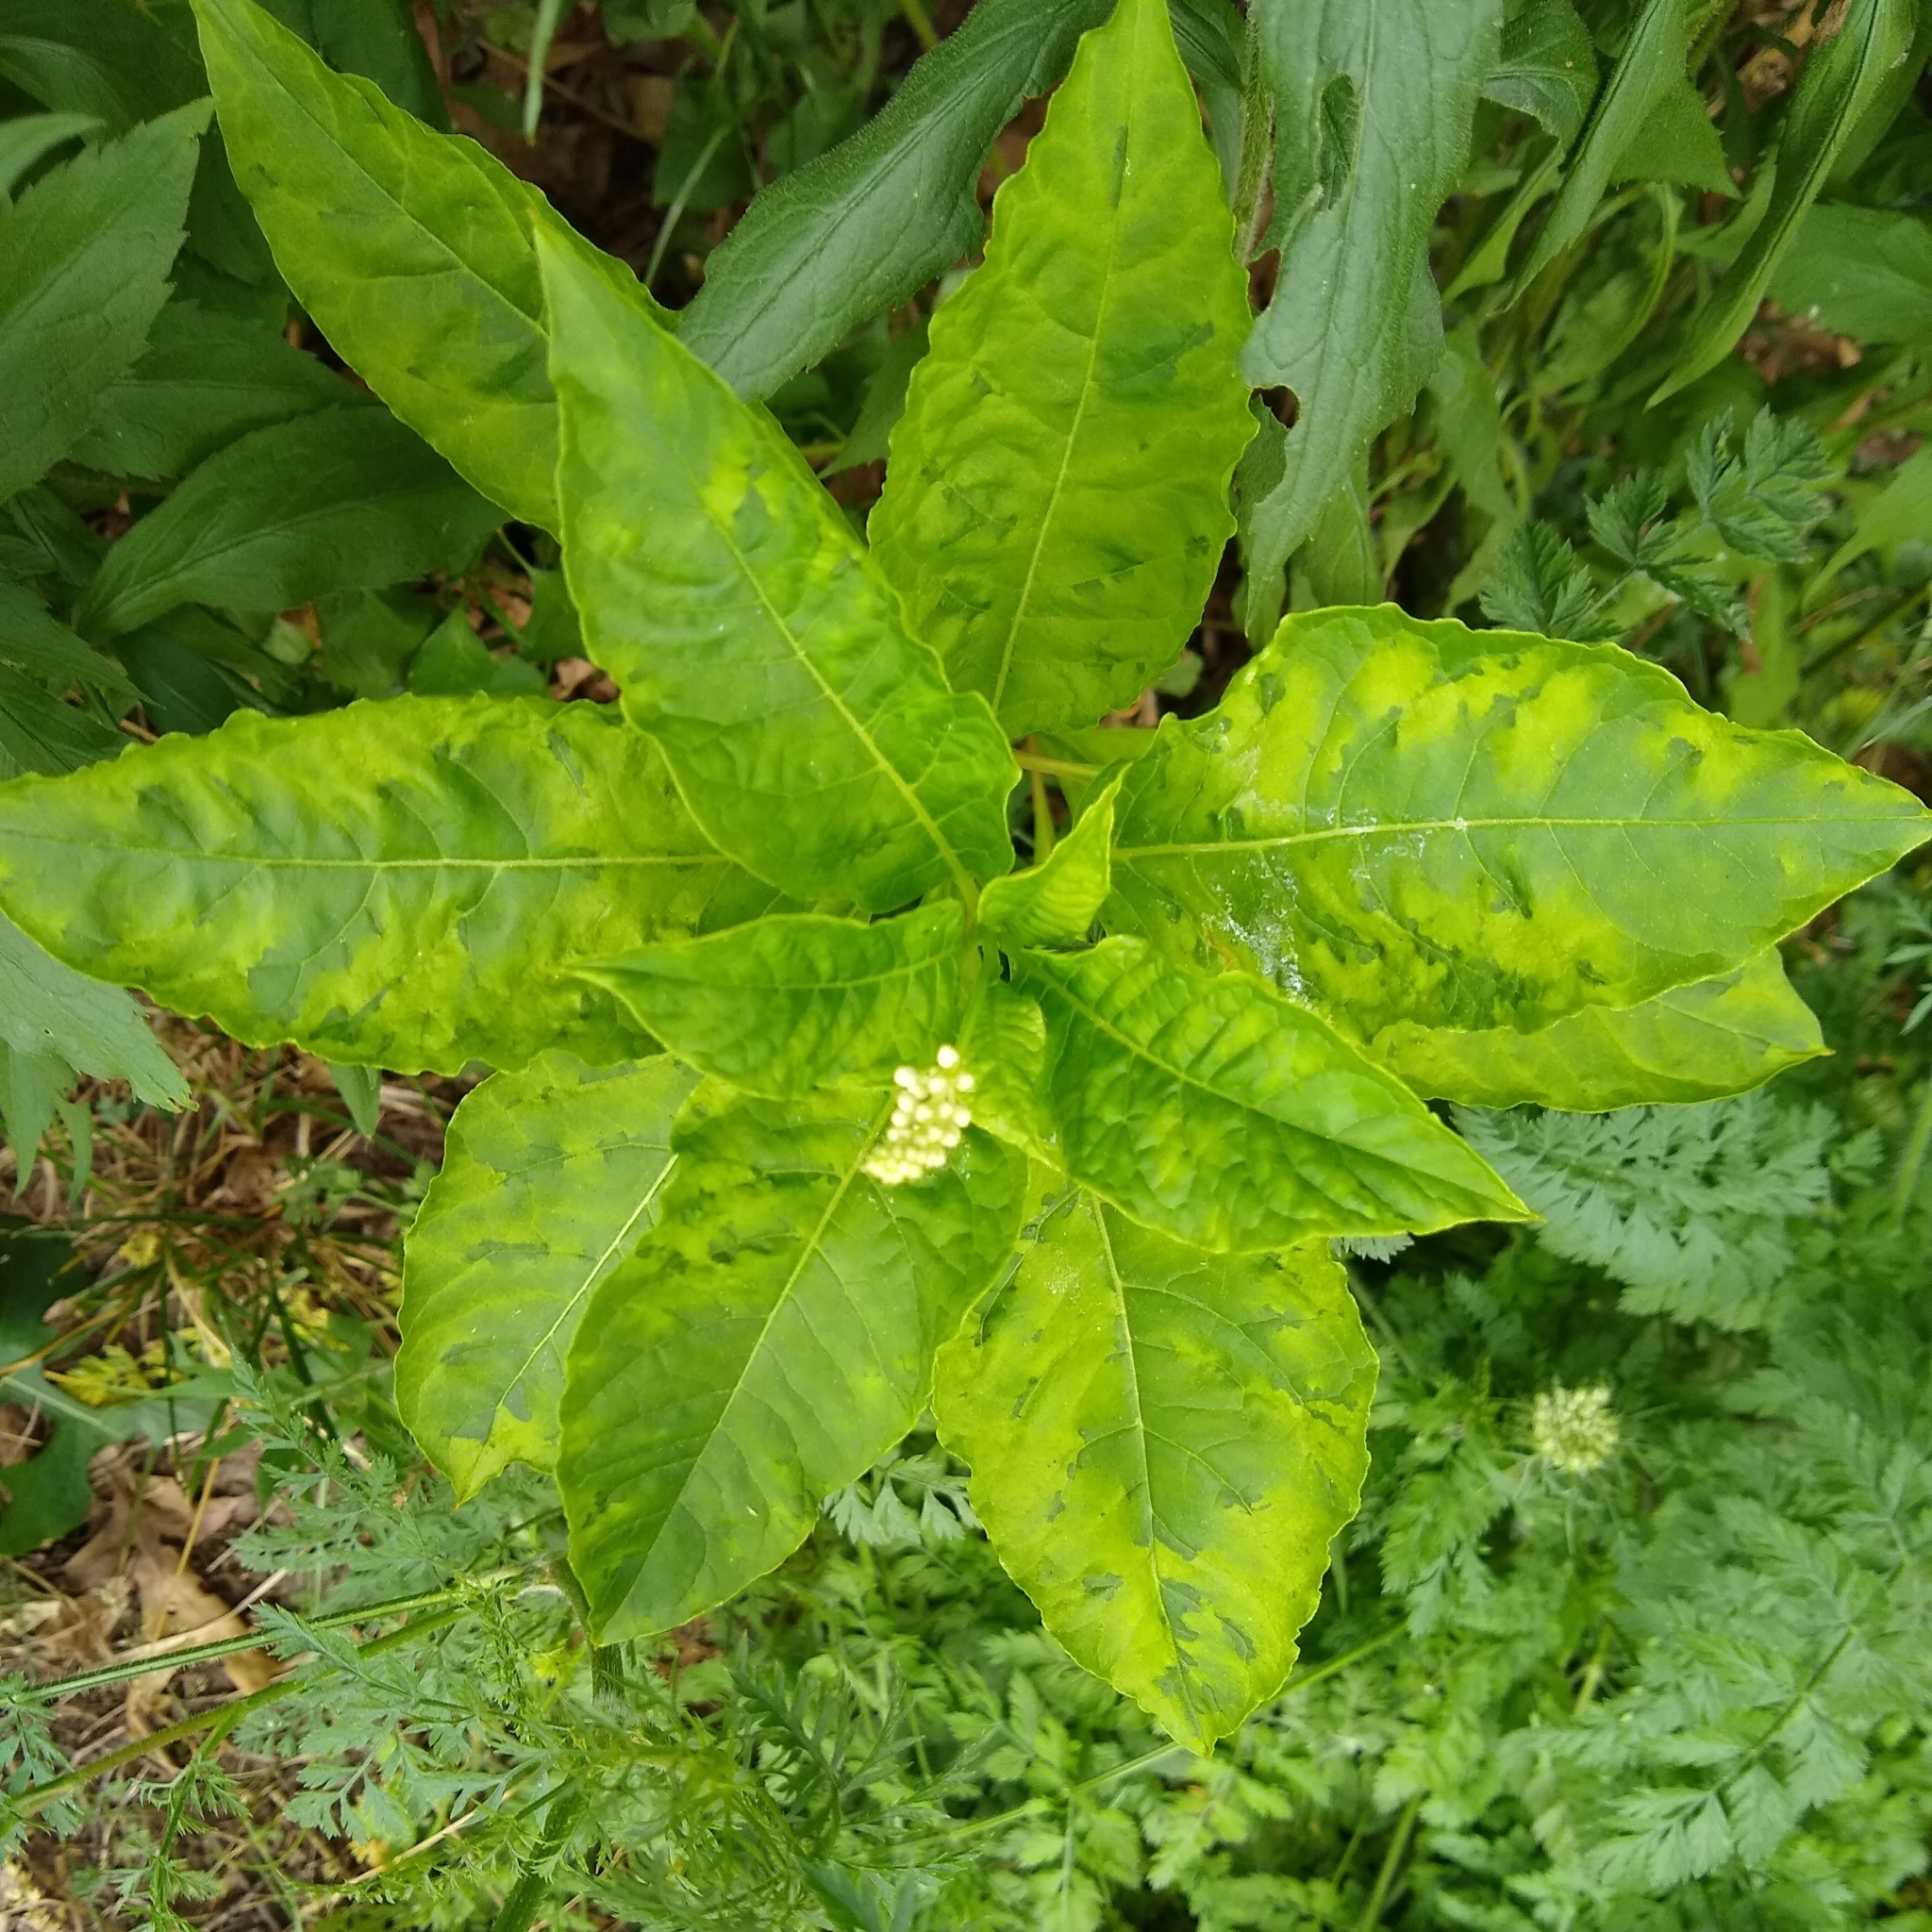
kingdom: Viruses
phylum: Pisuviricota
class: Stelpaviricetes
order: Patatavirales
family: Potyviridae
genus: Potyvirus
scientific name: Potyvirus Pokeweed mosaic virus
